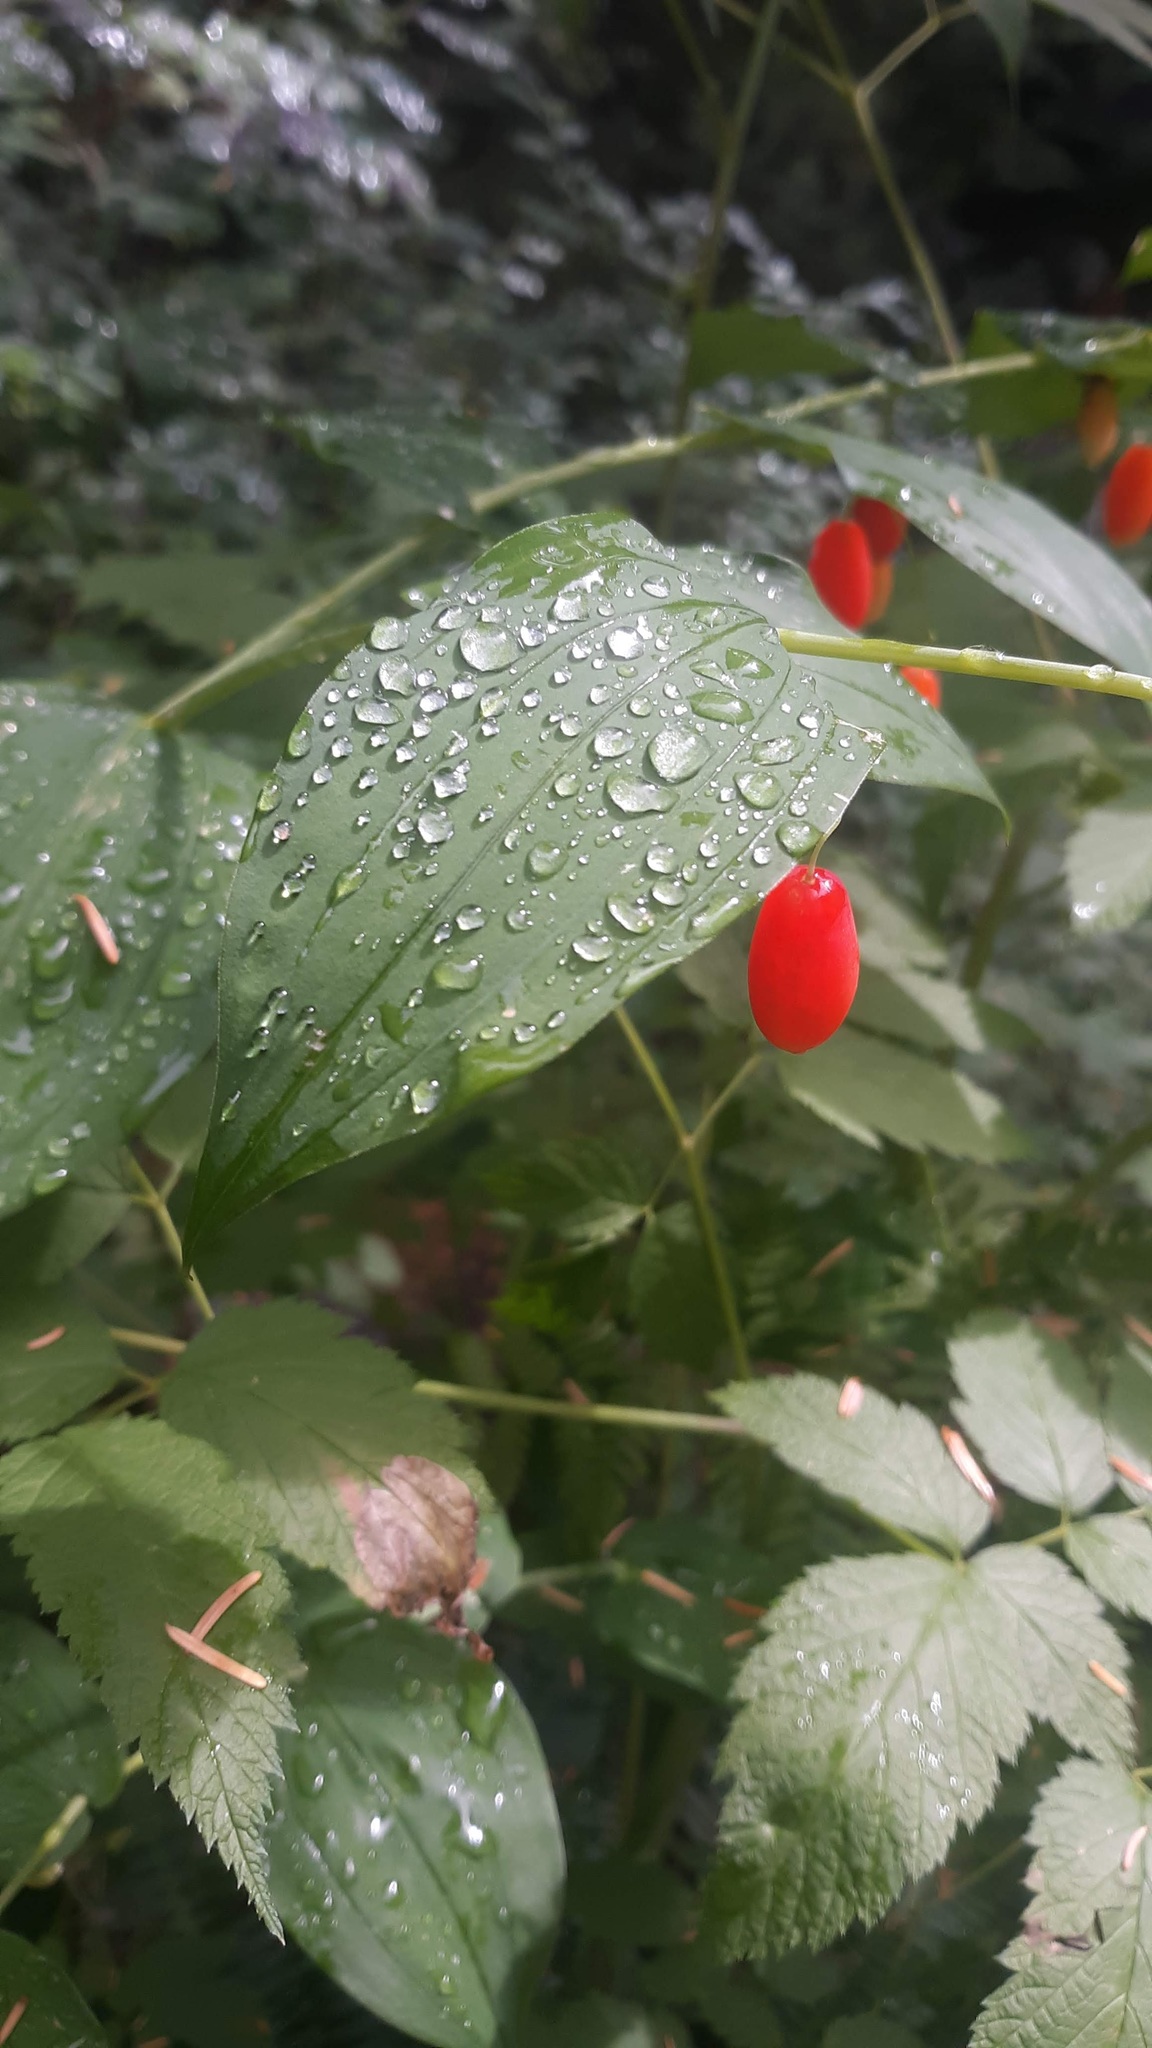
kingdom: Plantae
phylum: Tracheophyta
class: Liliopsida
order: Liliales
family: Liliaceae
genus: Streptopus
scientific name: Streptopus amplexifolius
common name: Clasp twisted stalk
